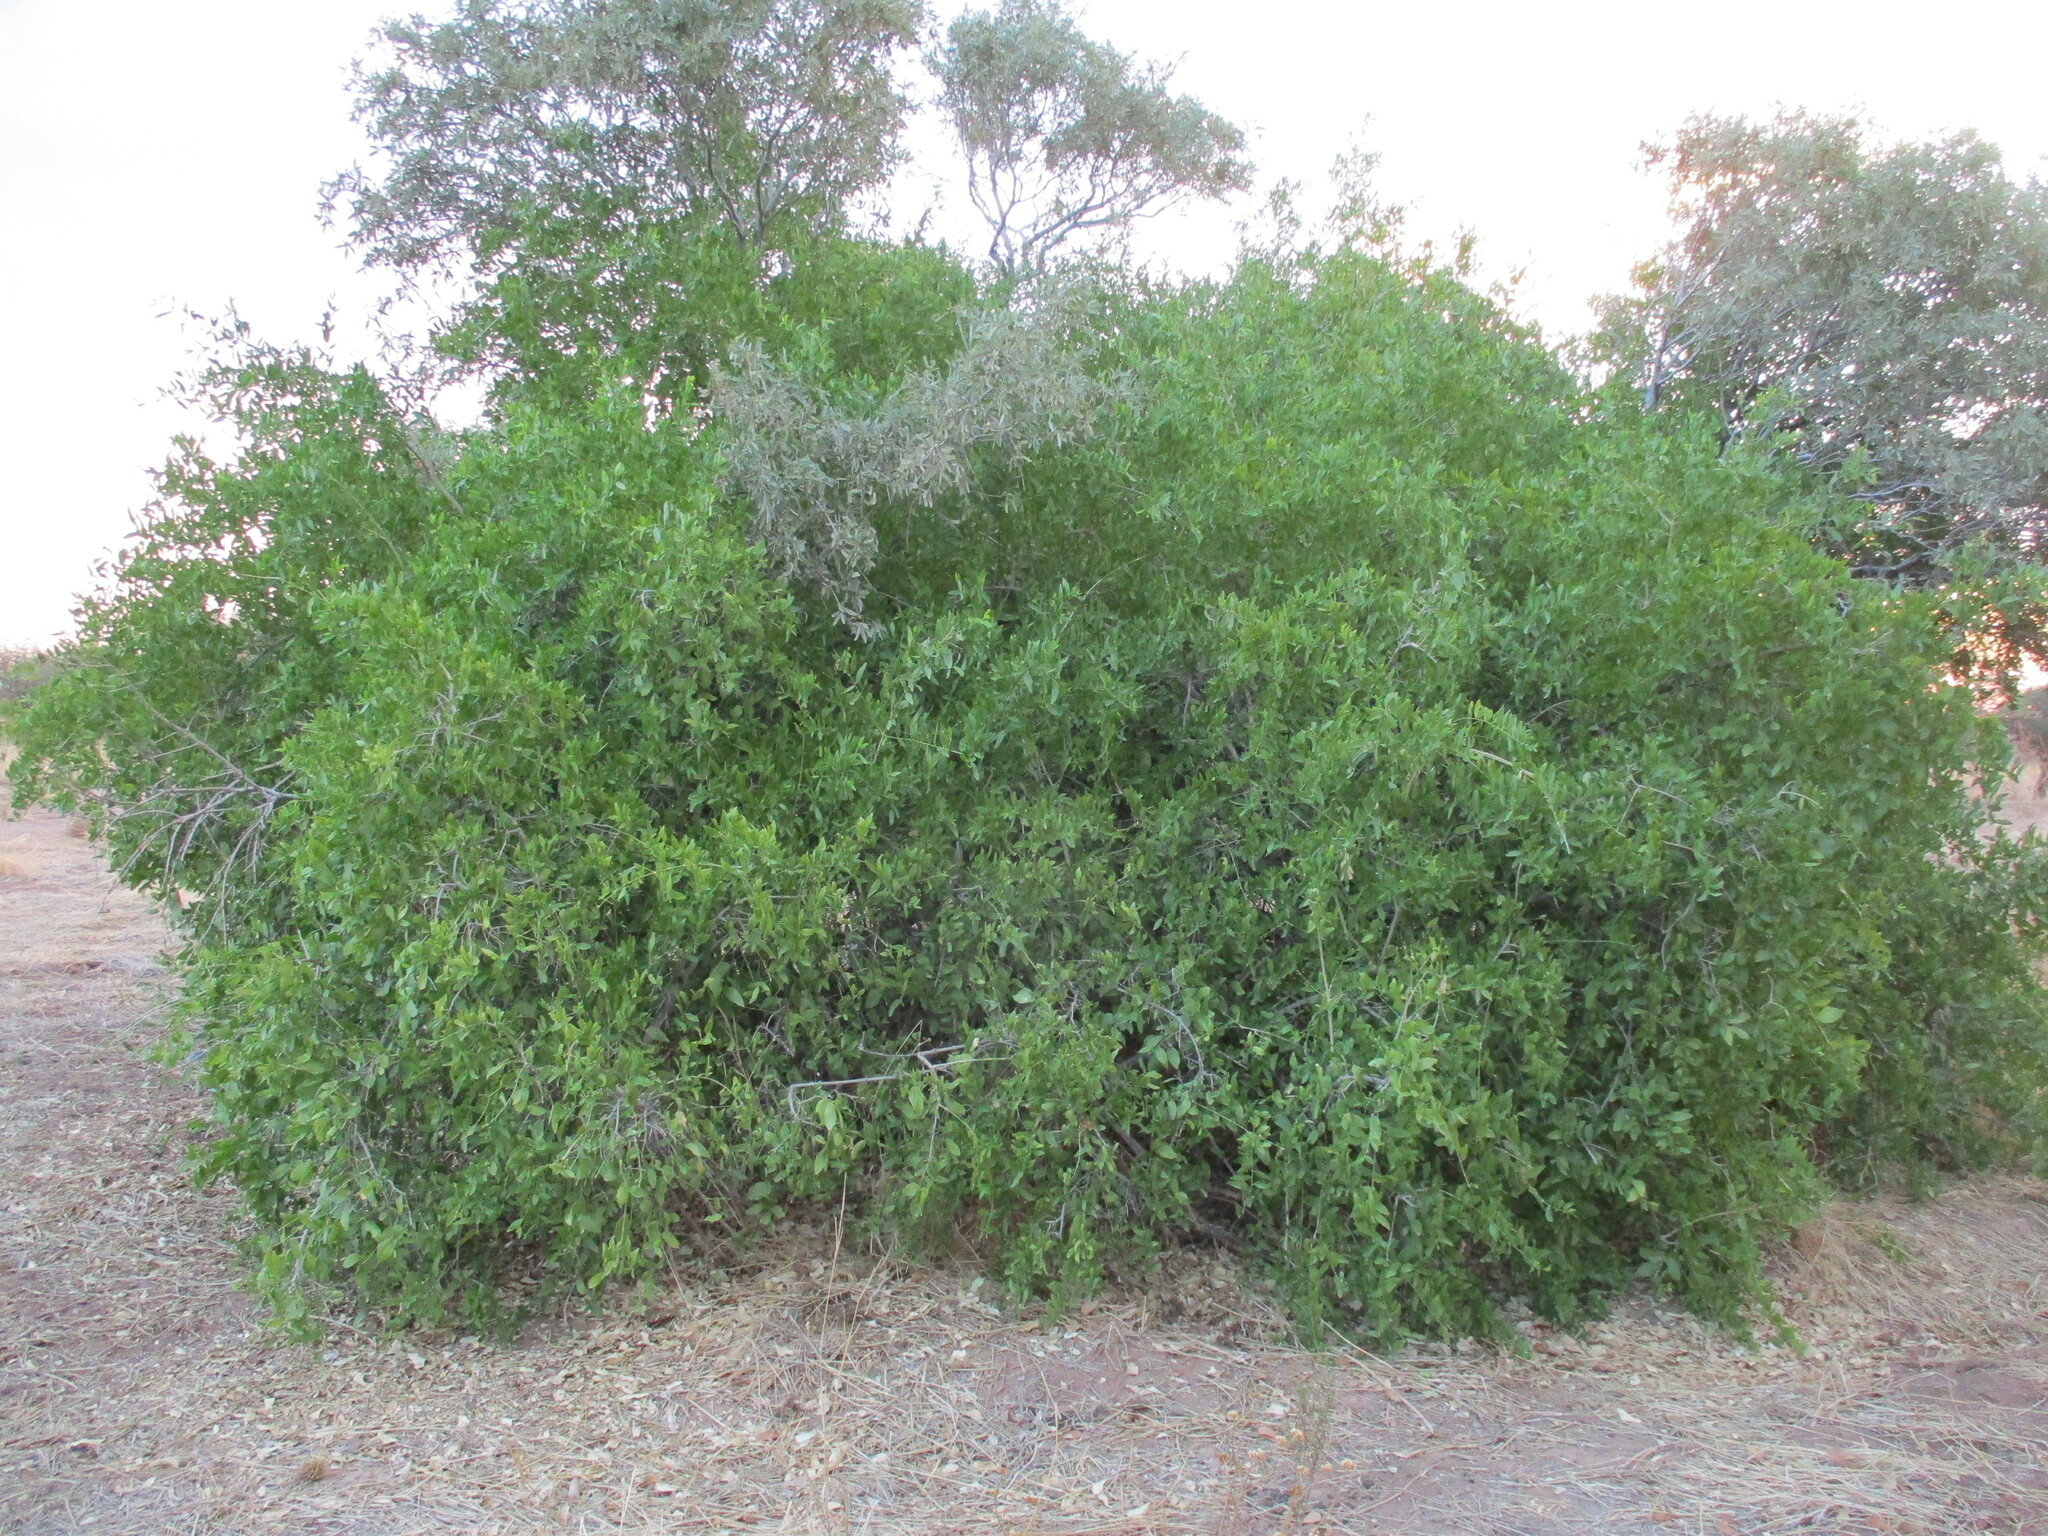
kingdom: Plantae
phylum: Tracheophyta
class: Magnoliopsida
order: Brassicales
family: Salvadoraceae
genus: Salvadora
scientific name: Salvadora persica
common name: Toothbrushtree
